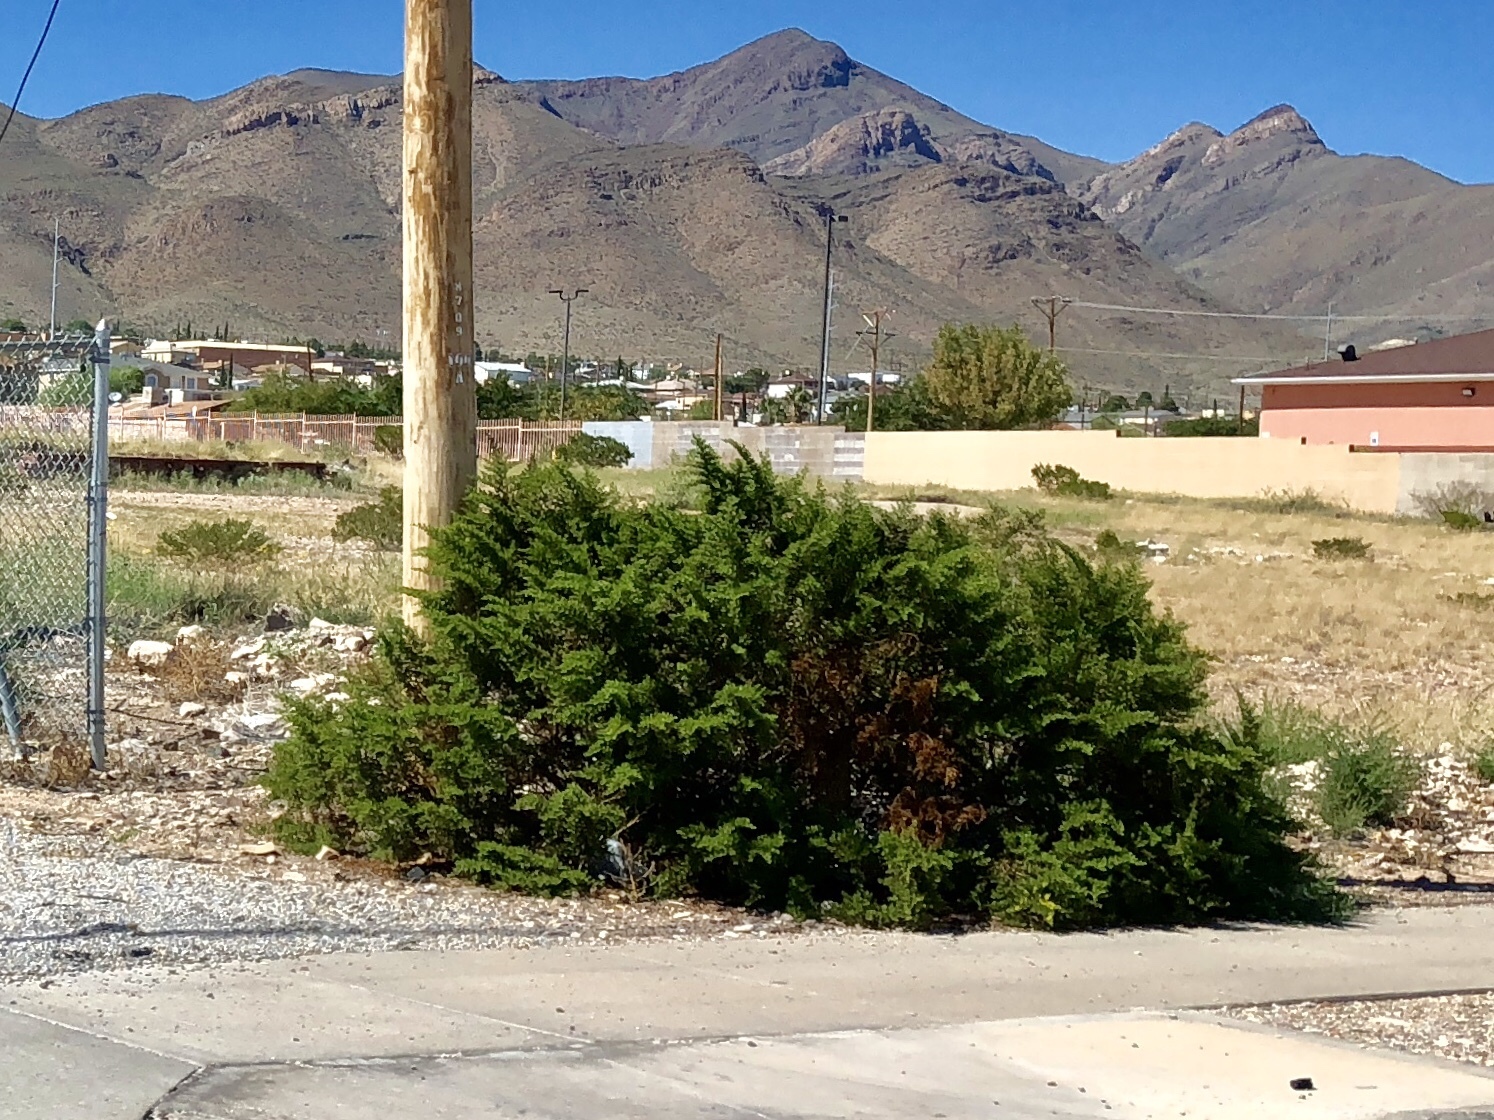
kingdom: Plantae
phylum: Tracheophyta
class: Magnoliopsida
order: Zygophyllales
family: Zygophyllaceae
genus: Larrea
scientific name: Larrea tridentata
